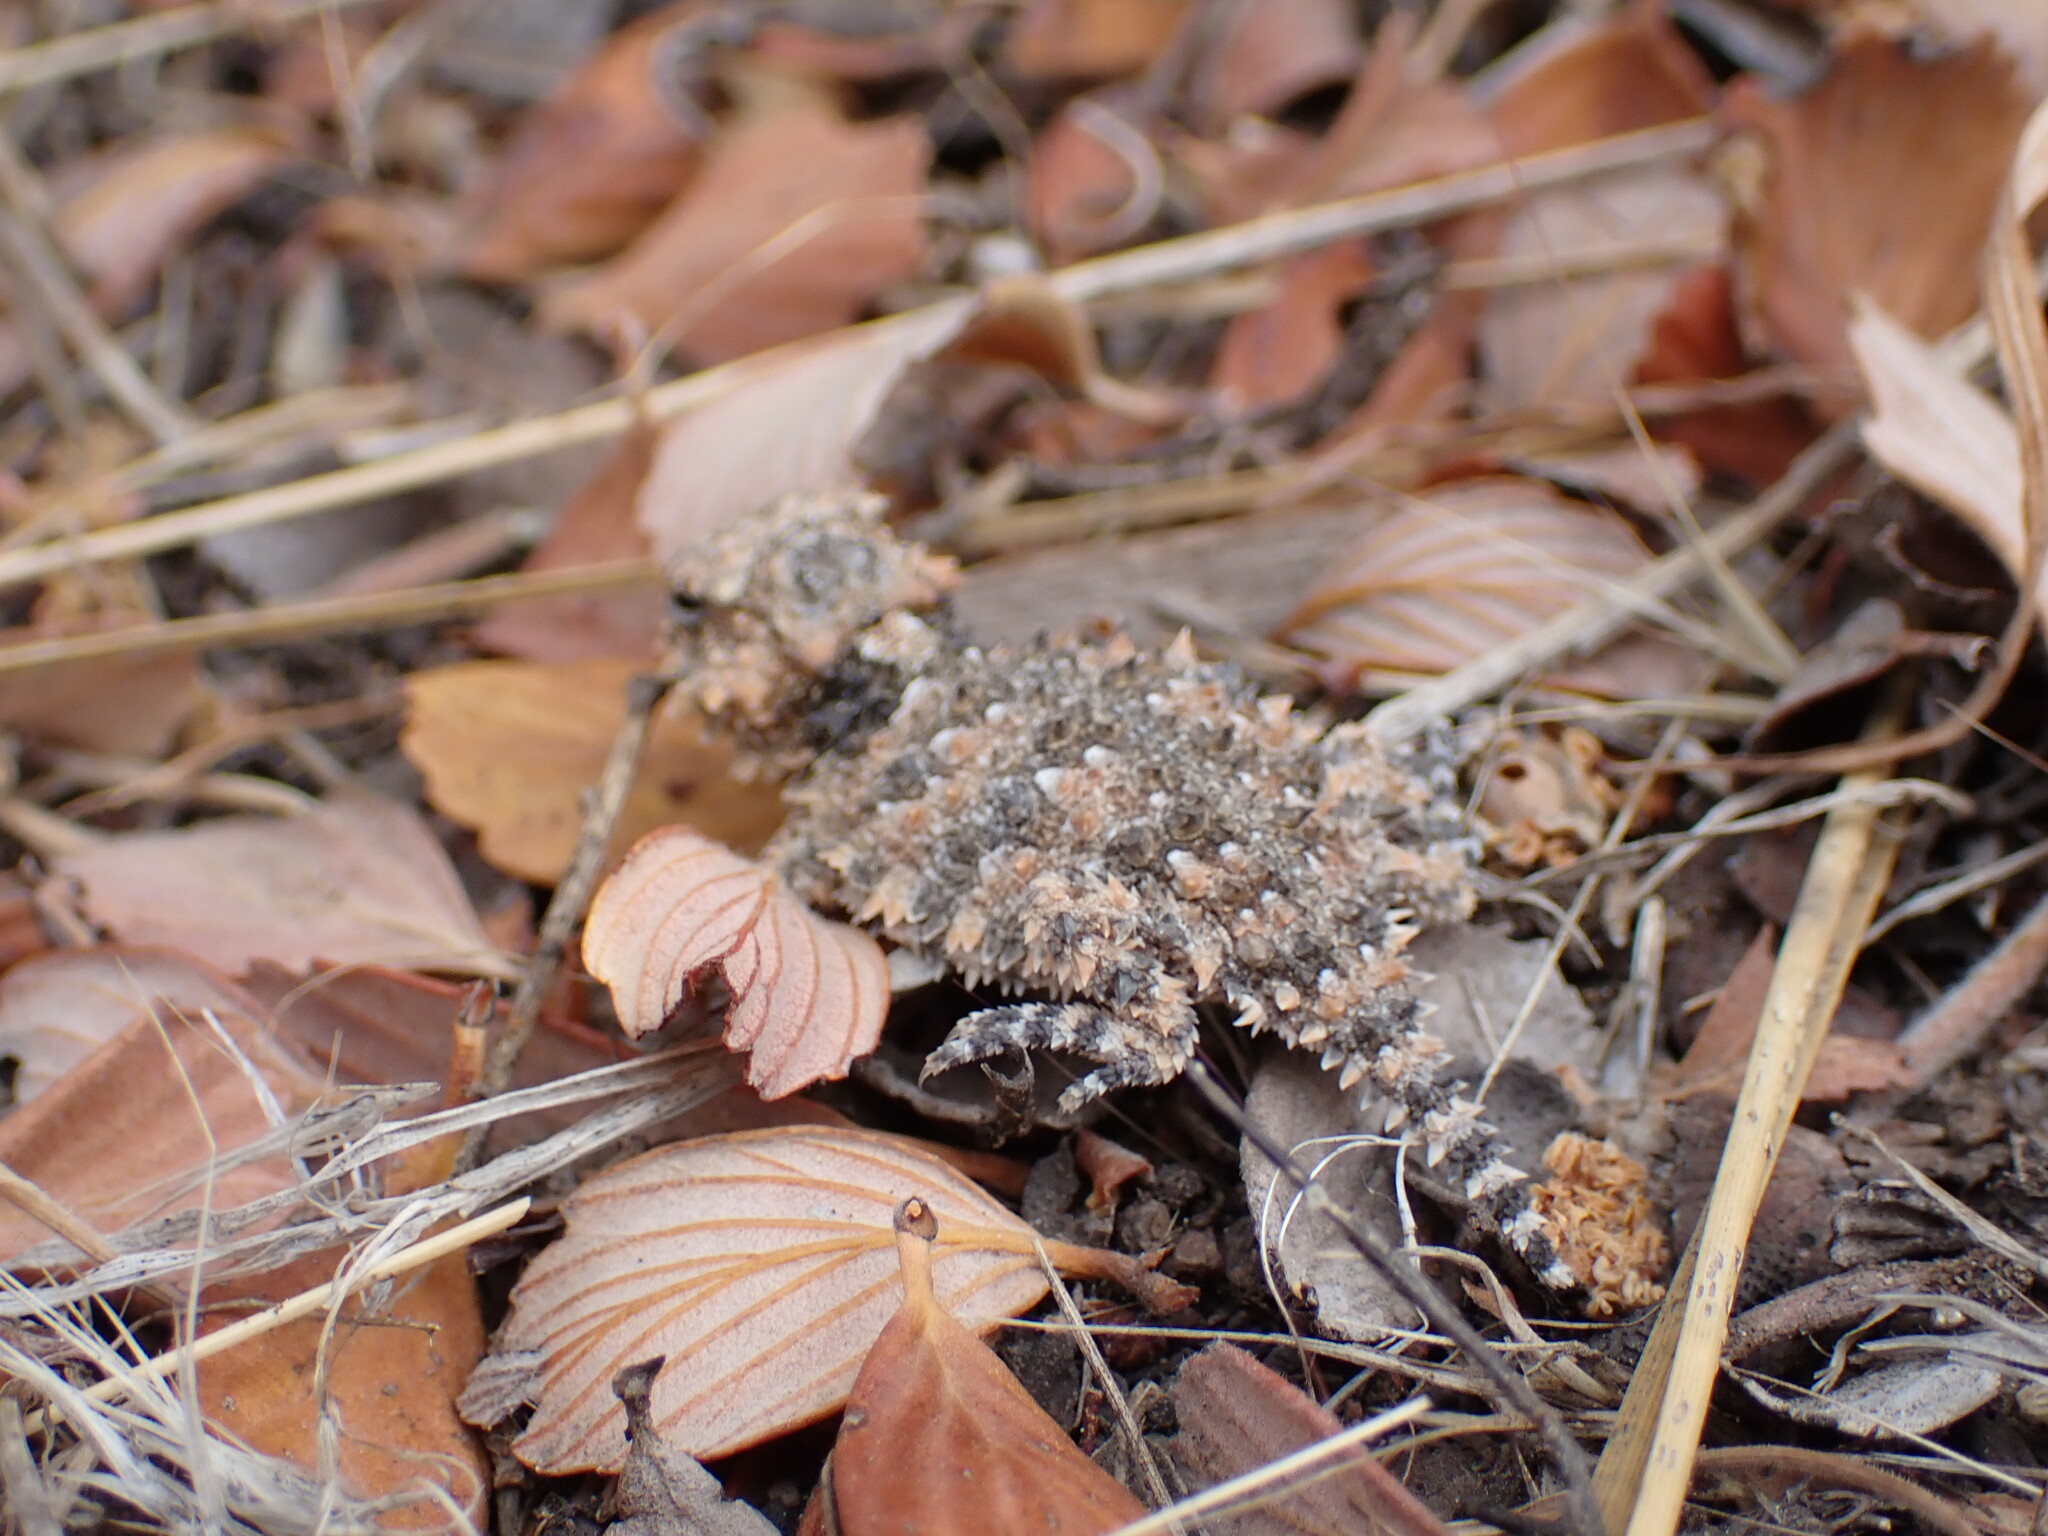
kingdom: Animalia
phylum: Chordata
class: Squamata
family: Phrynosomatidae
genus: Phrynosoma
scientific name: Phrynosoma blainvillii
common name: San diego horned lizard
